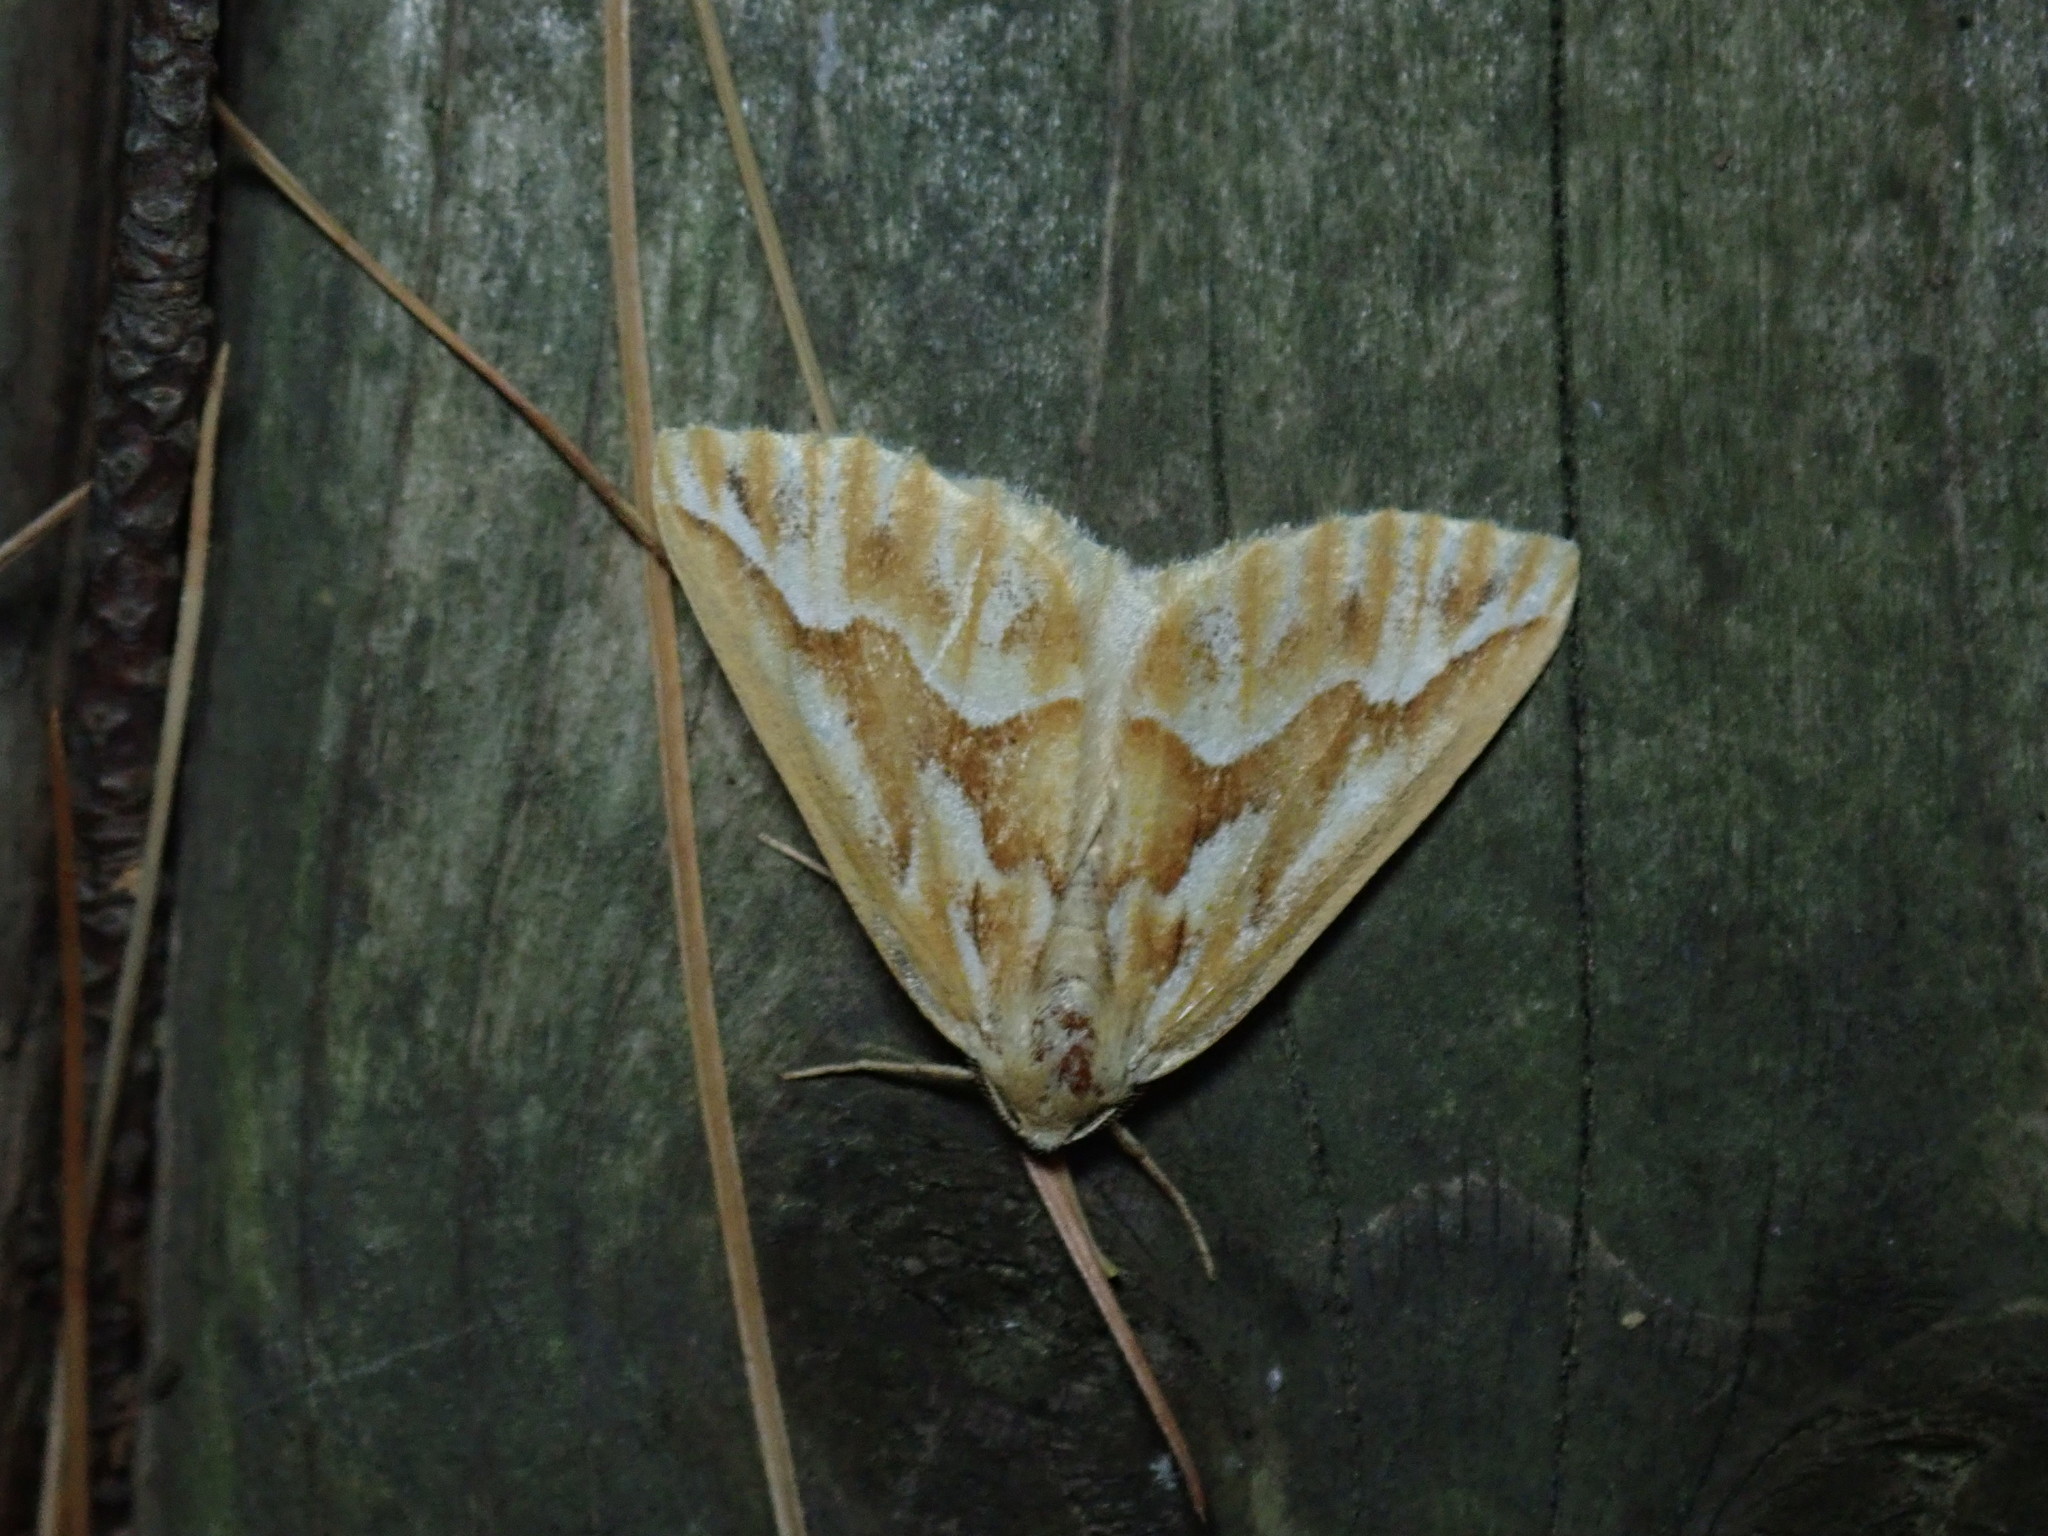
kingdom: Animalia
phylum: Arthropoda
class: Insecta
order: Lepidoptera
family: Geometridae
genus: Caripeta
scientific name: Caripeta piniata
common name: Northern pine looper moth
